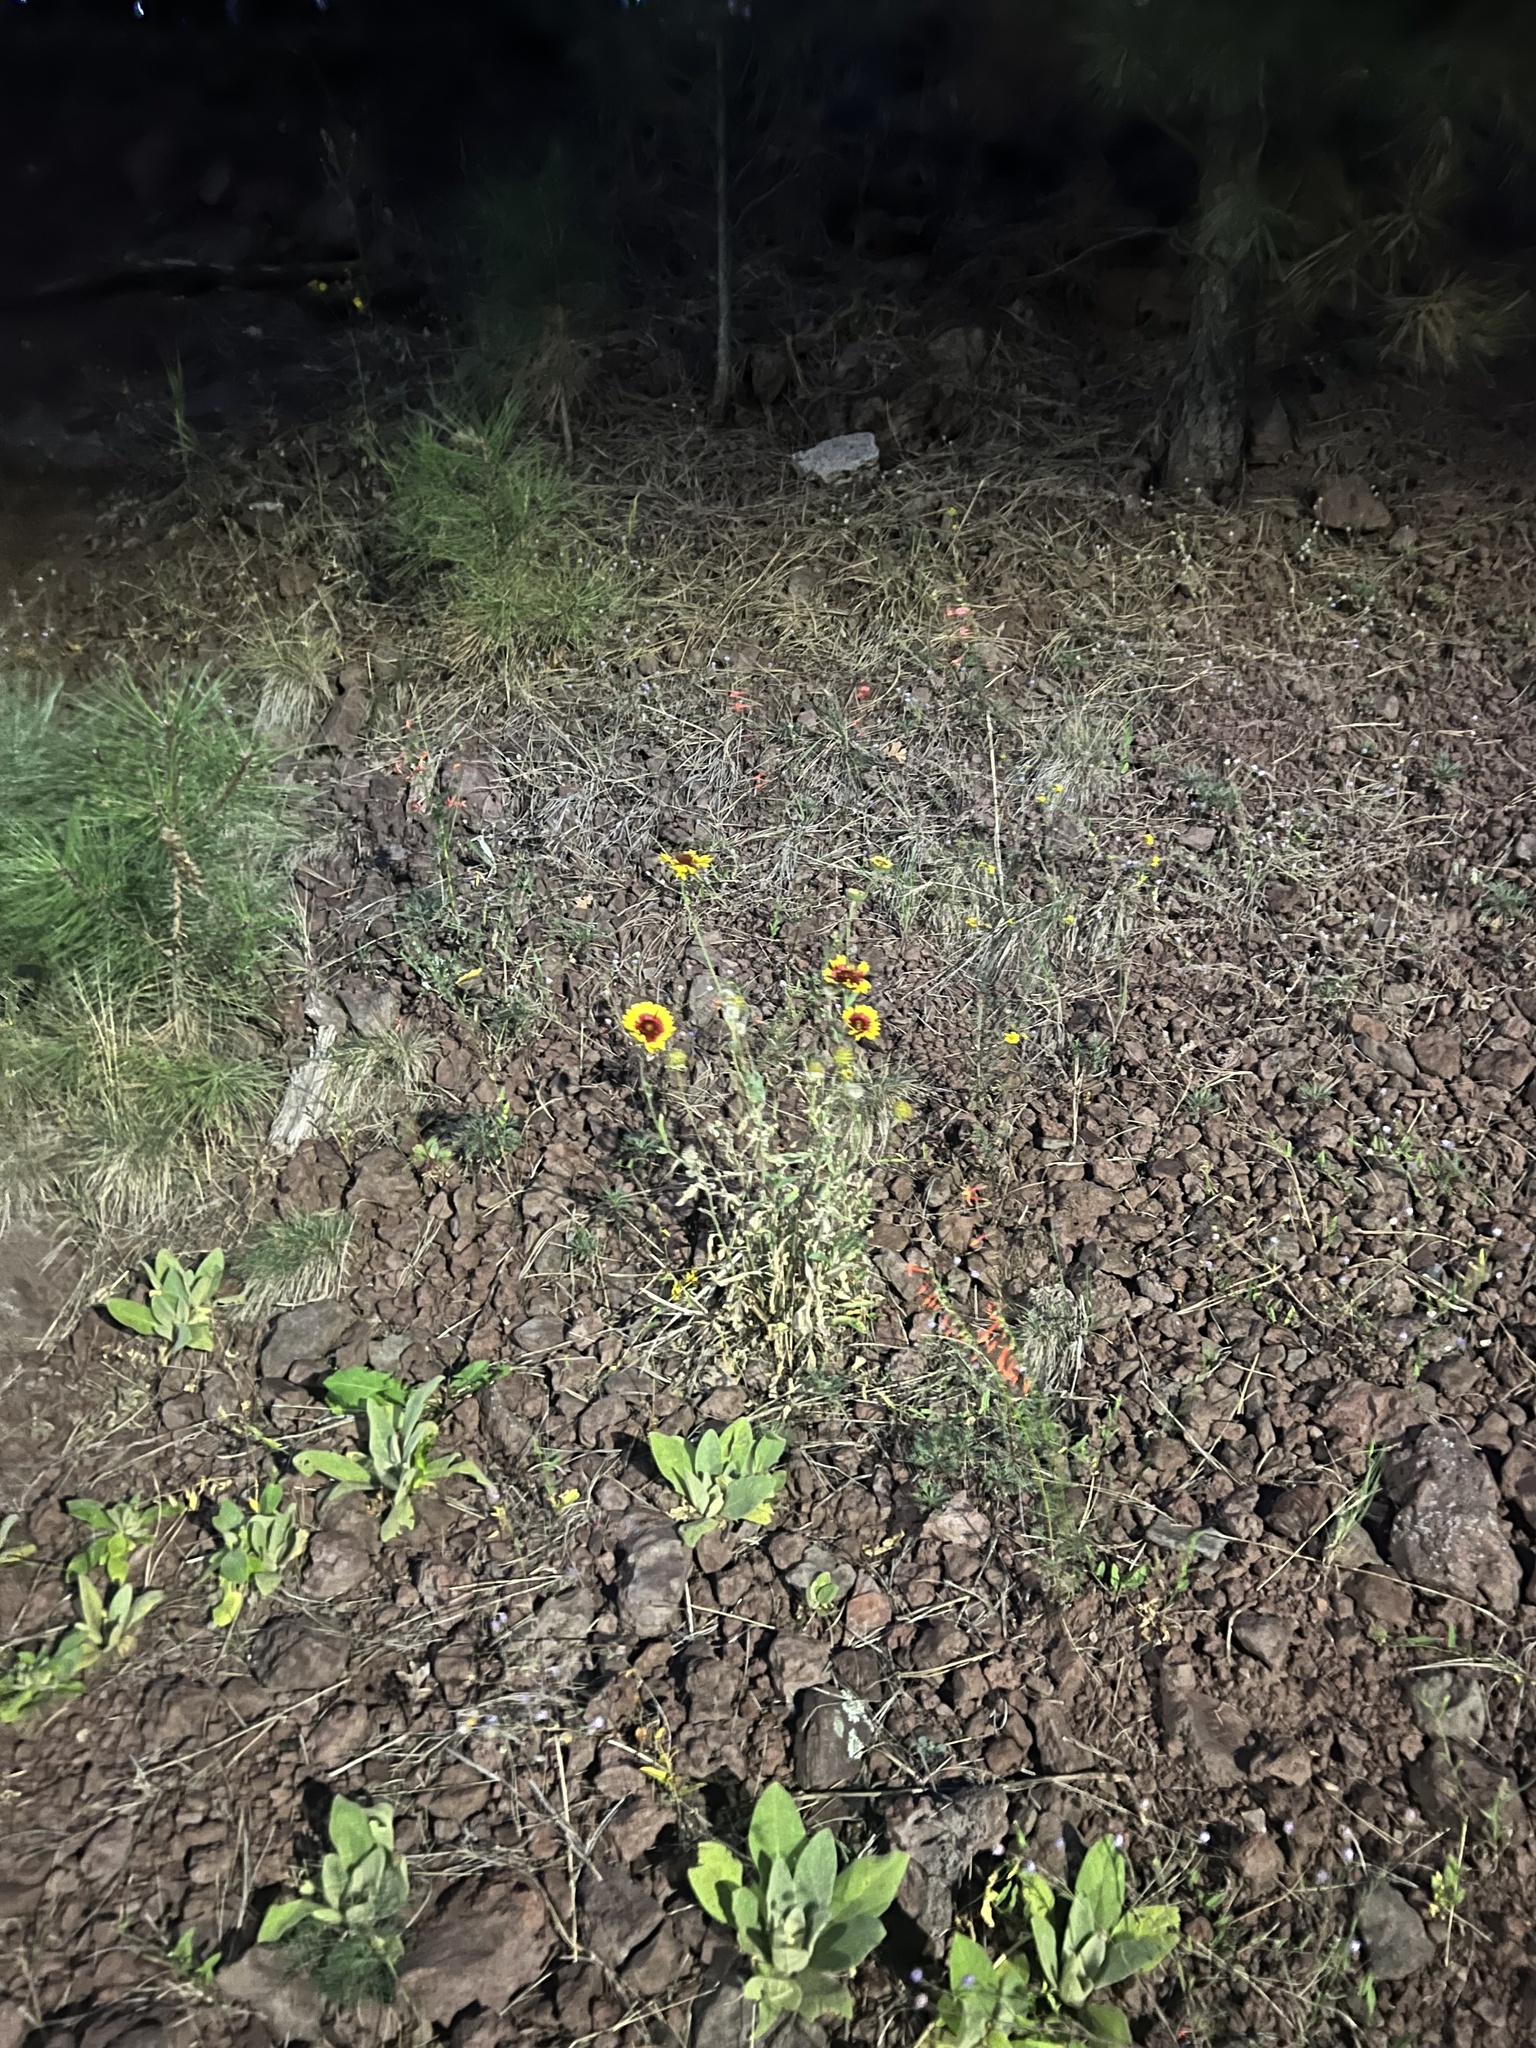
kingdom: Plantae
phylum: Tracheophyta
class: Magnoliopsida
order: Asterales
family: Asteraceae
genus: Gaillardia
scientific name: Gaillardia pulchella
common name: Firewheel
